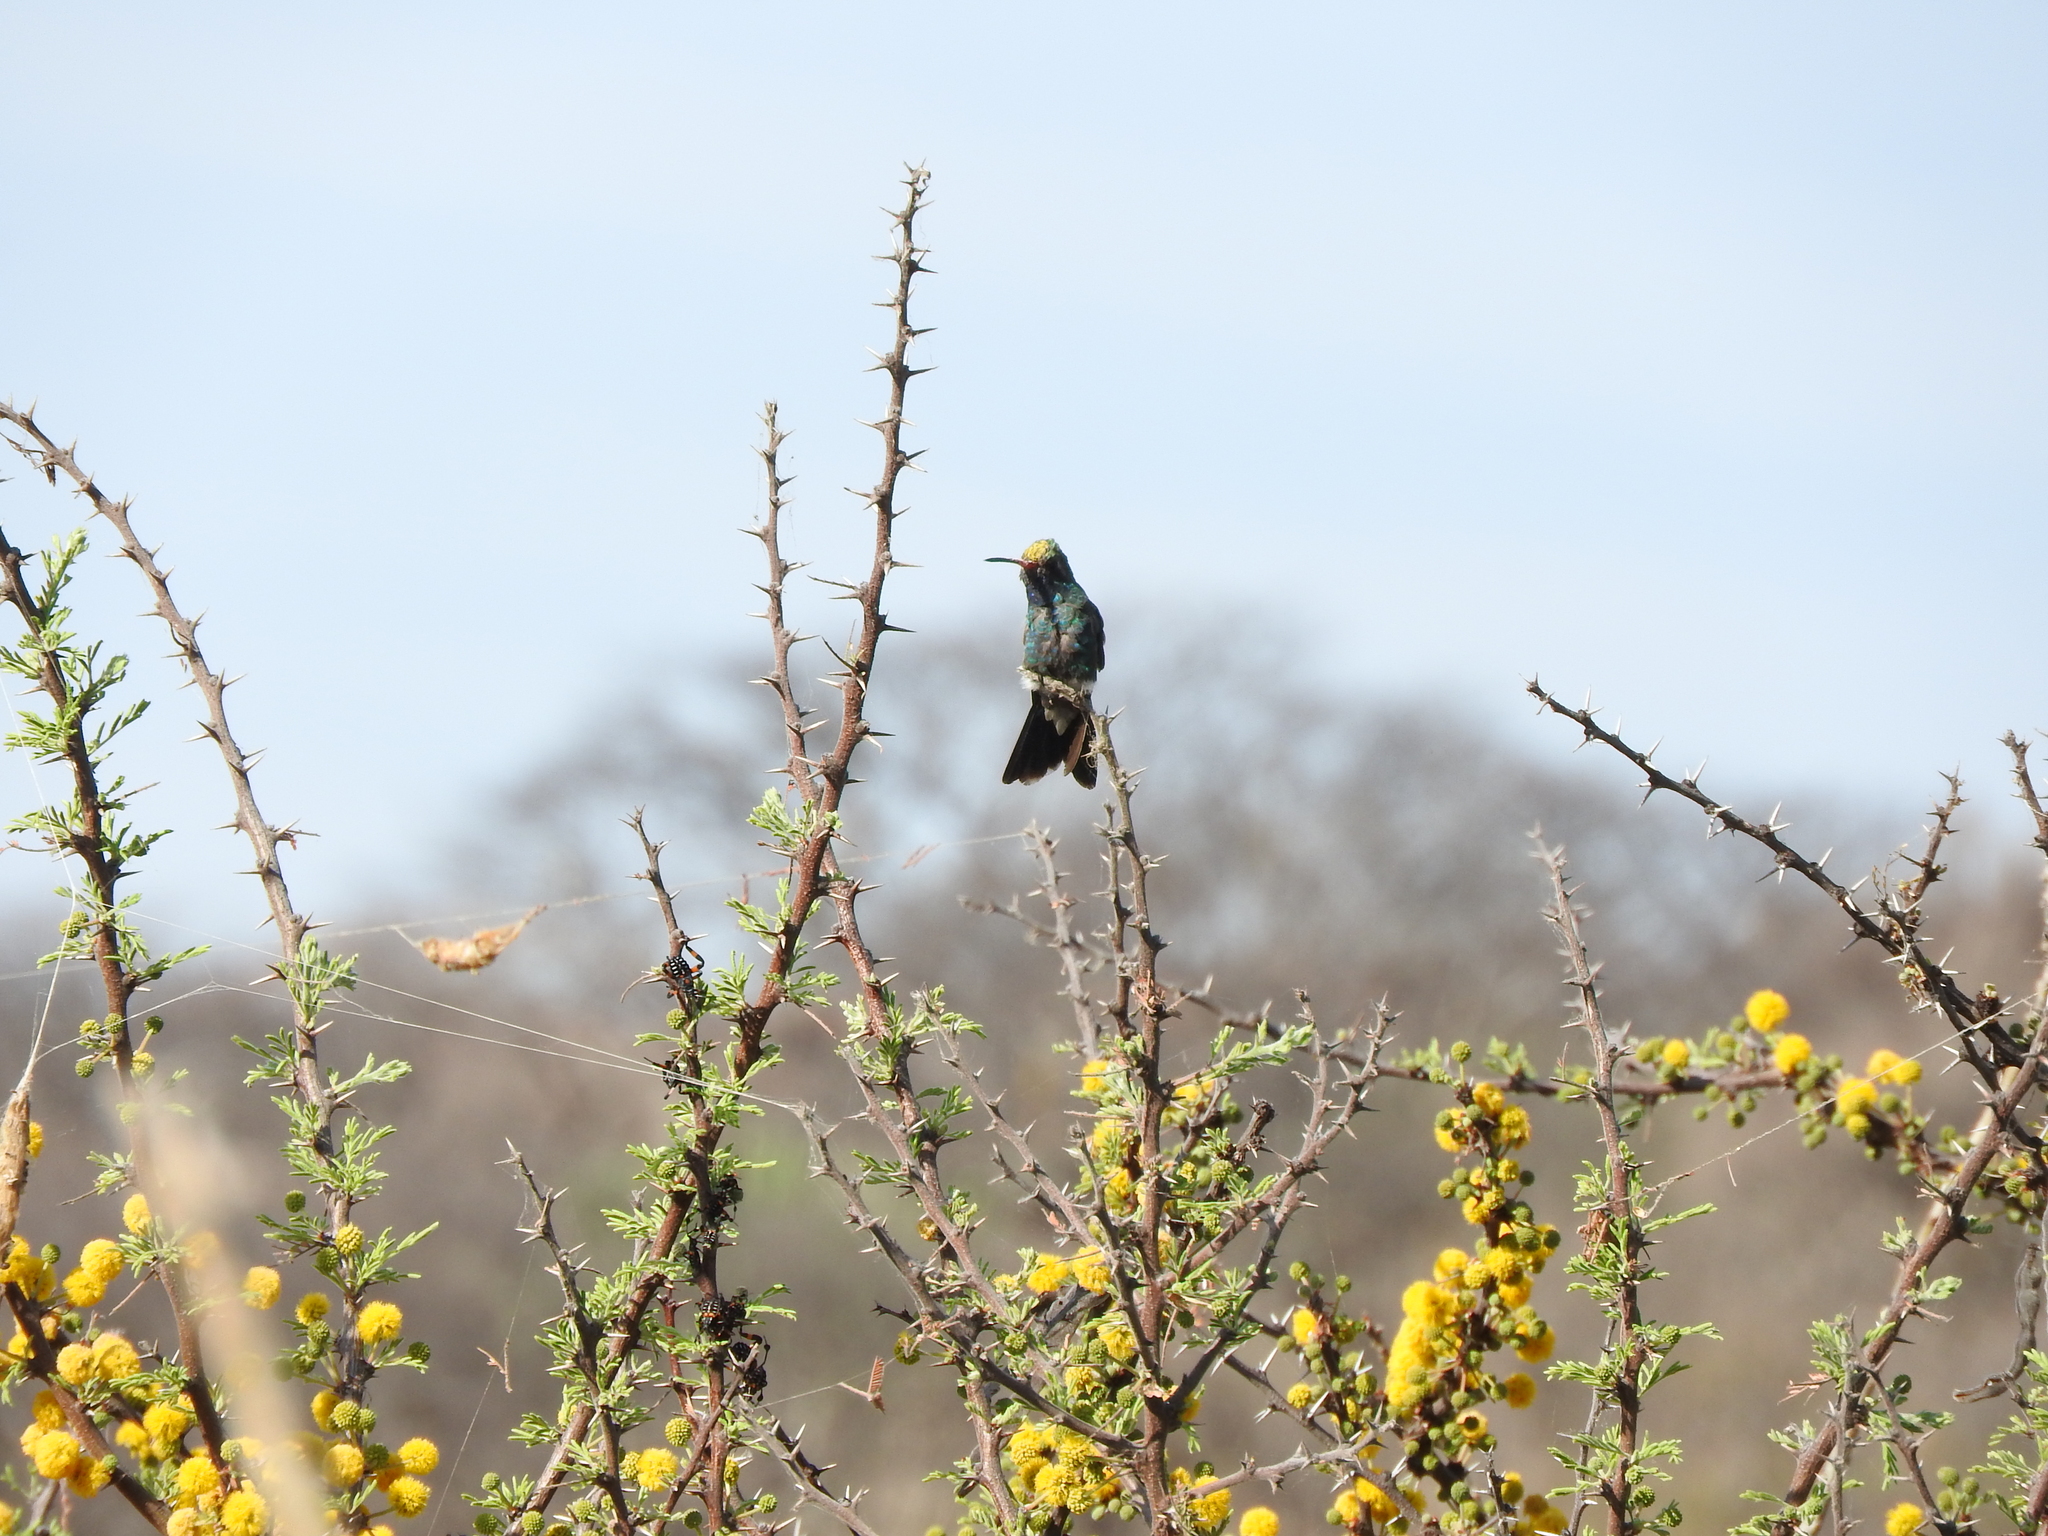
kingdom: Animalia
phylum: Chordata
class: Aves
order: Apodiformes
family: Trochilidae
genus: Cynanthus
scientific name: Cynanthus latirostris
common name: Broad-billed hummingbird
